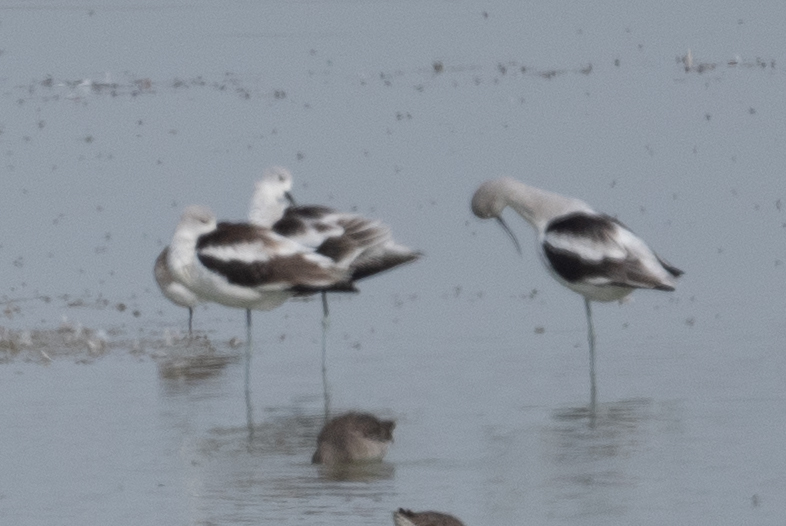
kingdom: Animalia
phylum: Chordata
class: Aves
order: Charadriiformes
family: Recurvirostridae
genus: Recurvirostra
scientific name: Recurvirostra americana
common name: American avocet
